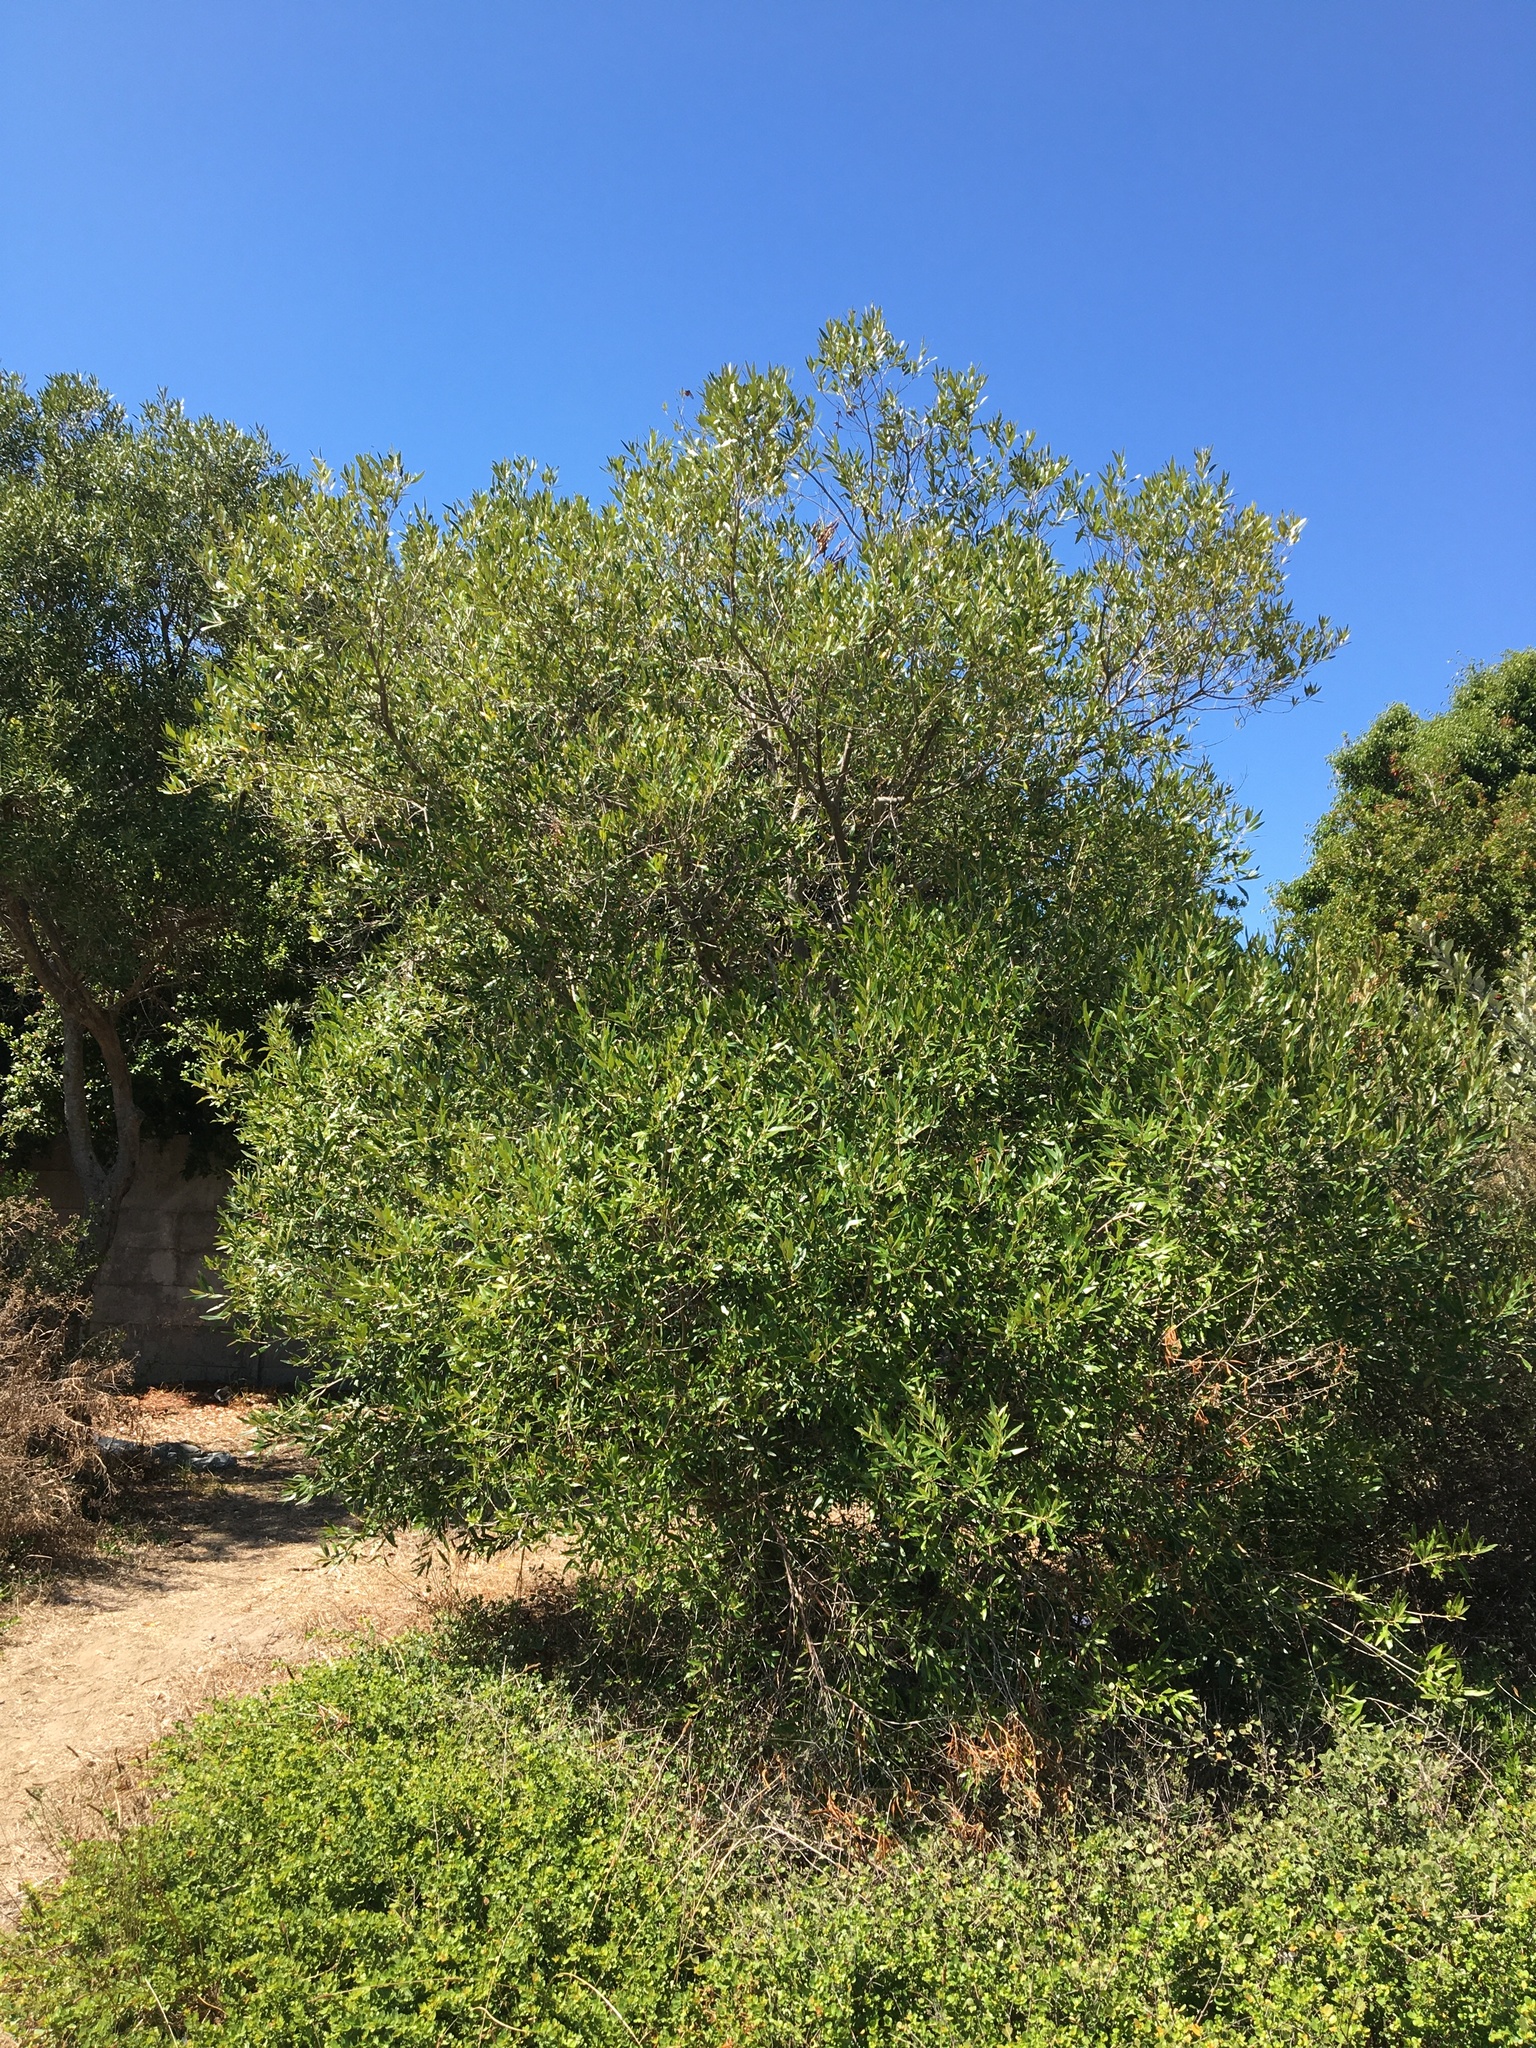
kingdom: Plantae
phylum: Tracheophyta
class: Magnoliopsida
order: Sapindales
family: Sapindaceae
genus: Dodonaea
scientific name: Dodonaea viscosa
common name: Hopbush
